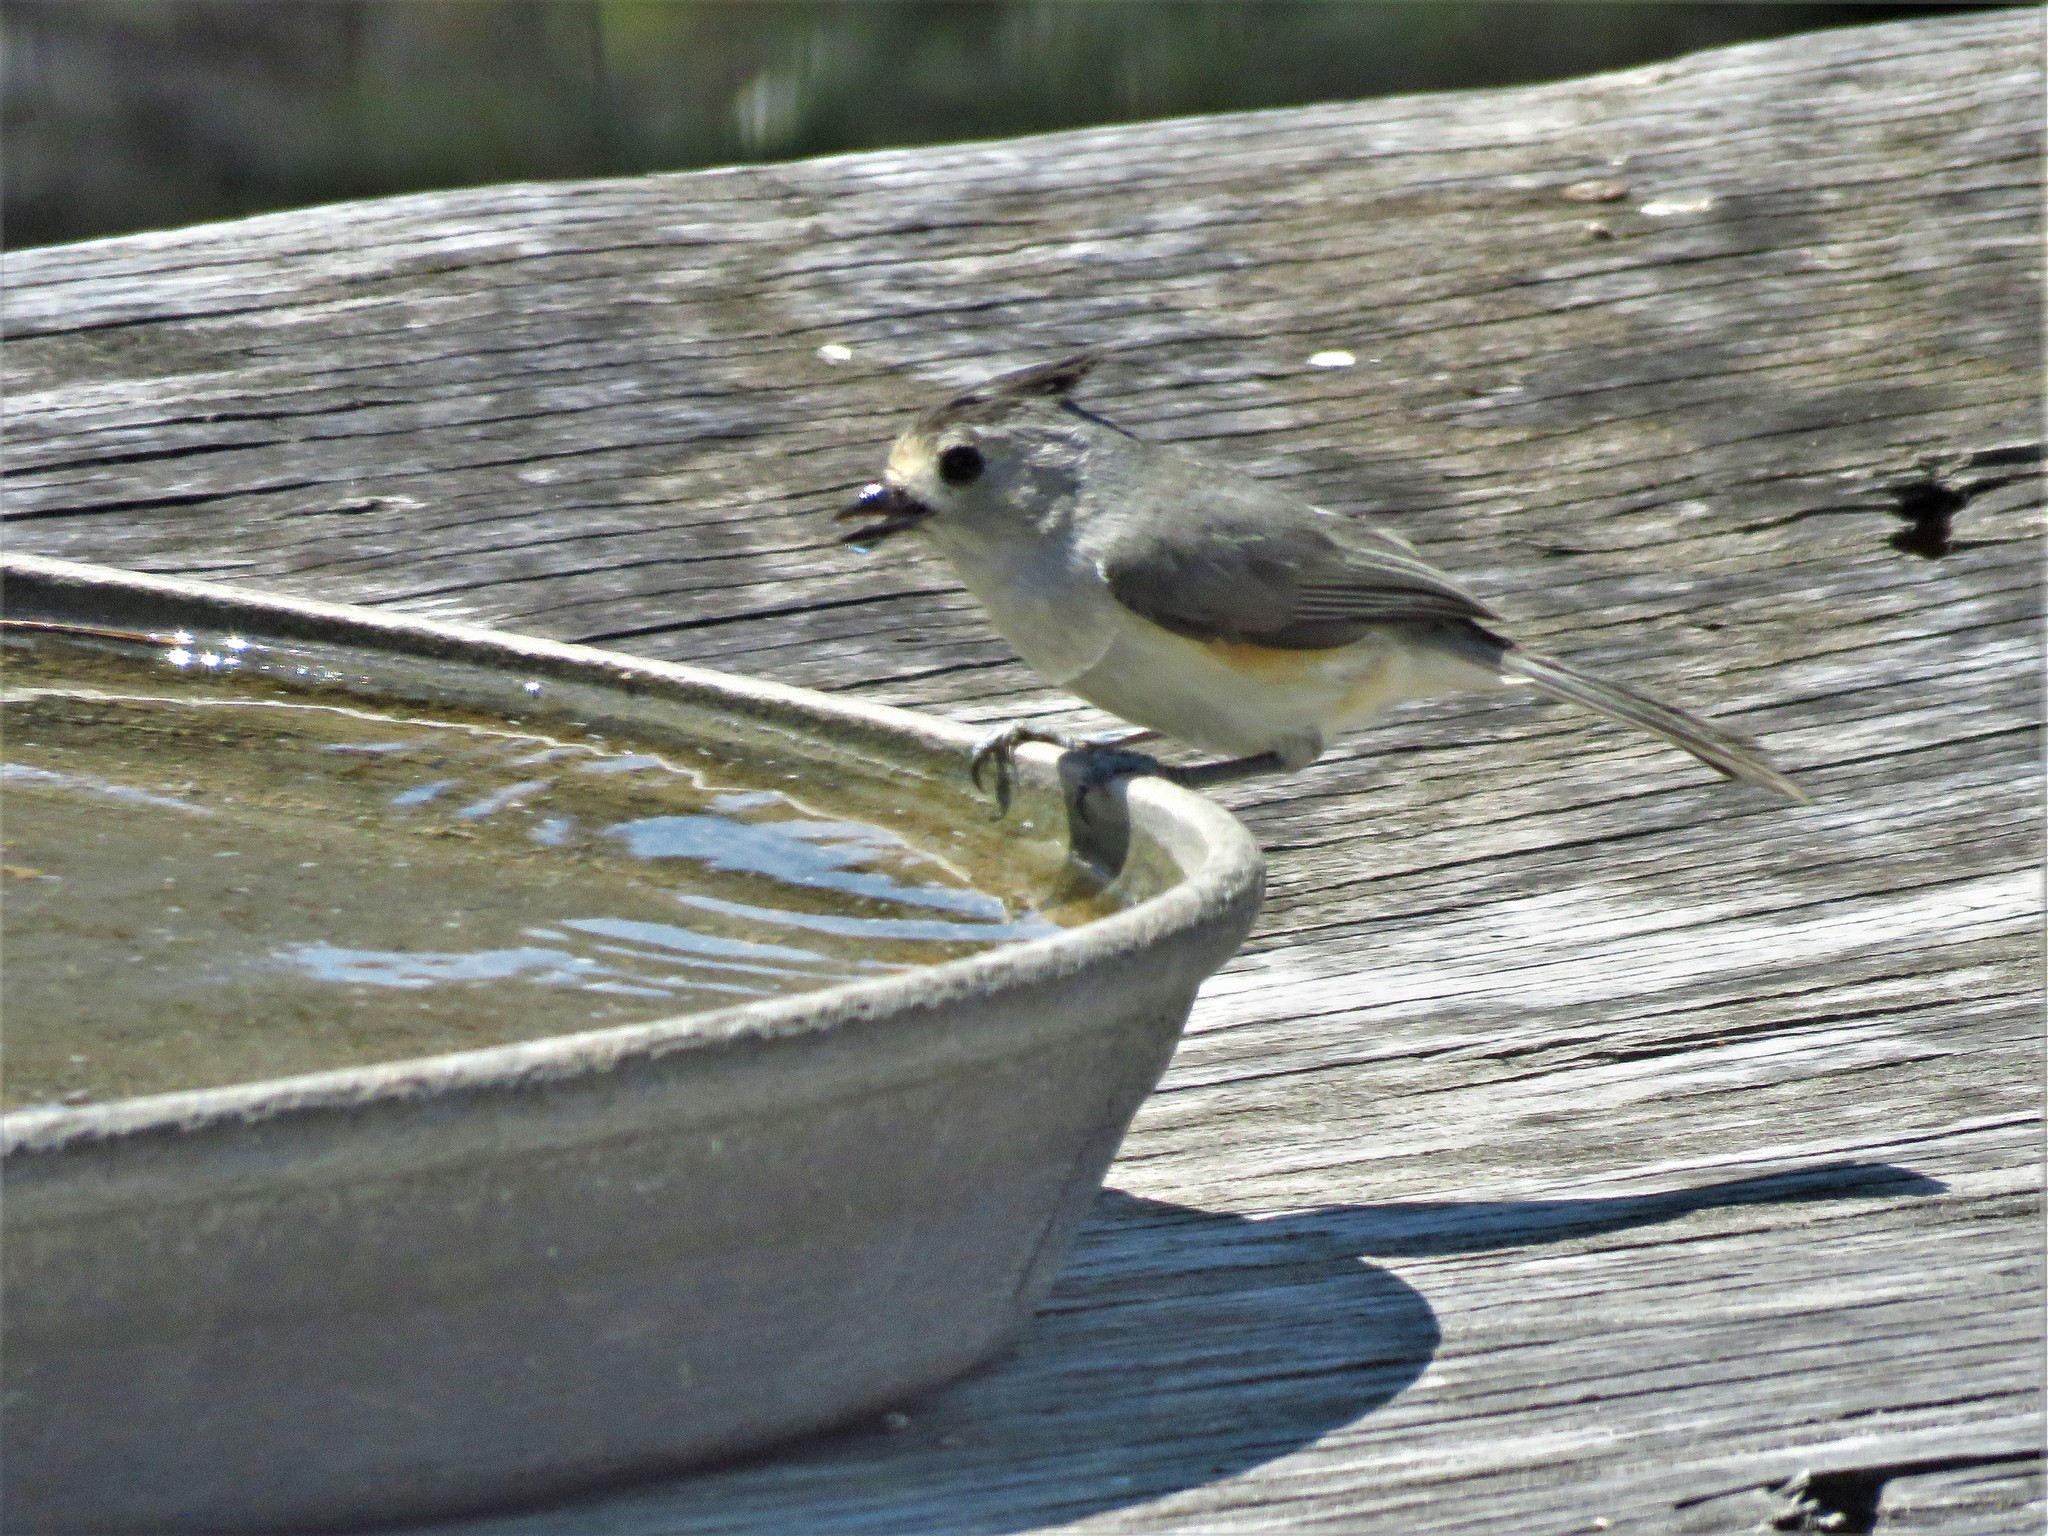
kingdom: Animalia
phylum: Chordata
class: Aves
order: Passeriformes
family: Paridae
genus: Baeolophus
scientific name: Baeolophus atricristatus
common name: Black-crested titmouse
